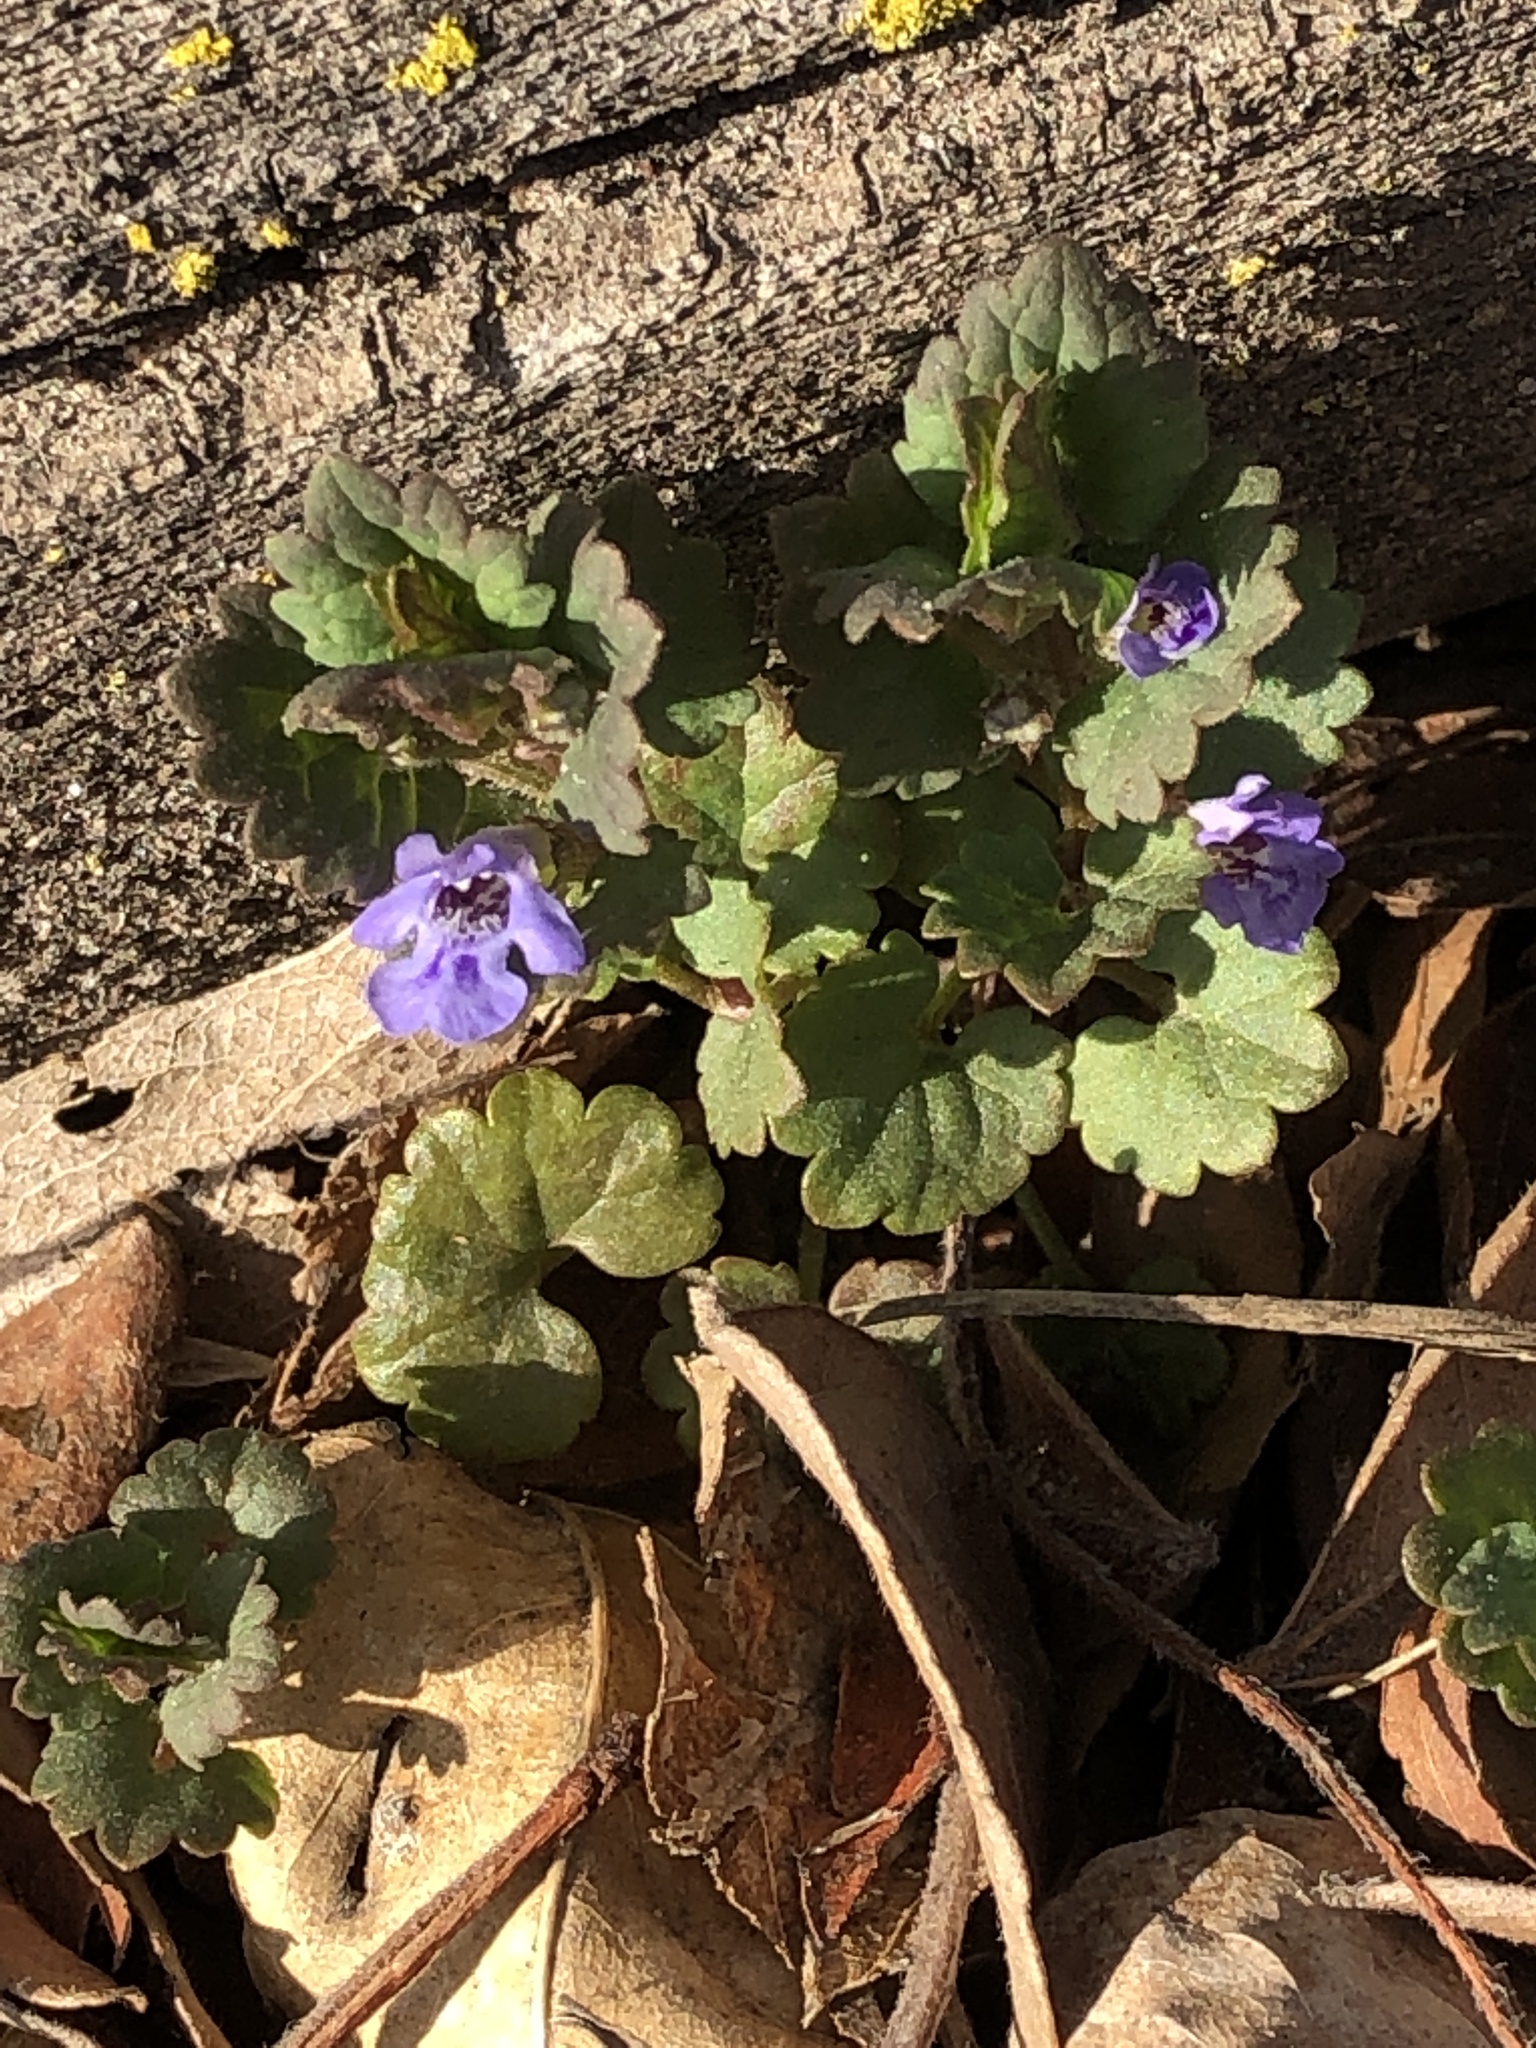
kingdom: Plantae
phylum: Tracheophyta
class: Magnoliopsida
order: Lamiales
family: Lamiaceae
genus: Glechoma
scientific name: Glechoma hederacea
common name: Ground ivy
